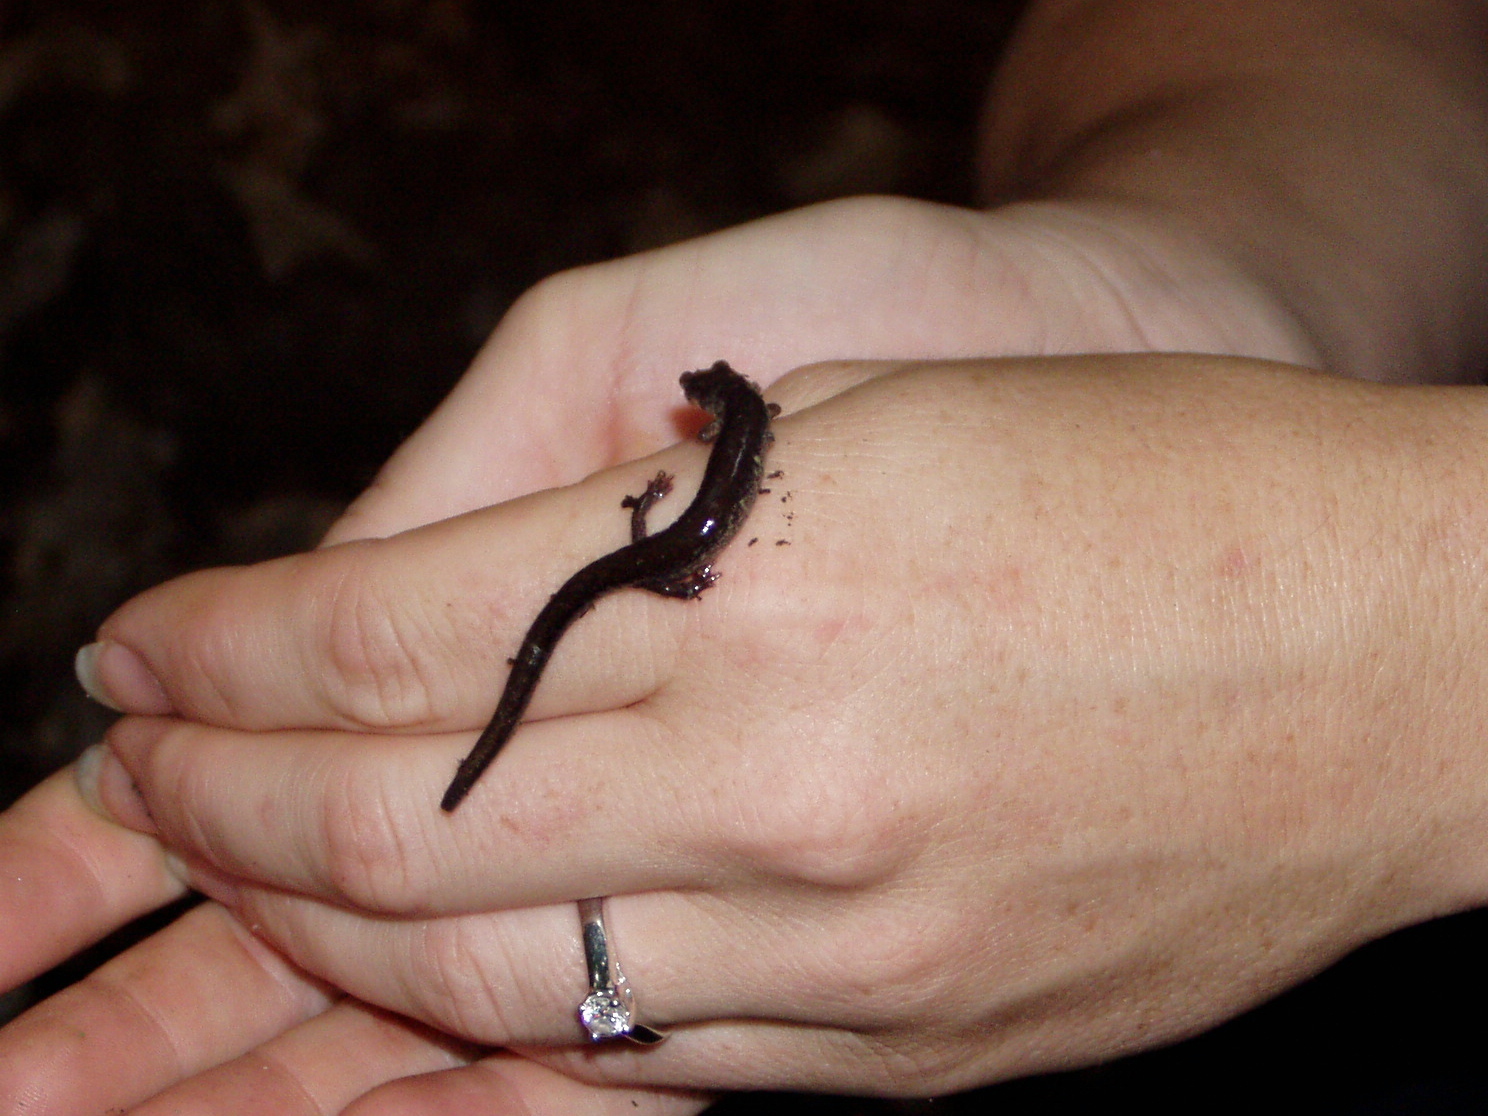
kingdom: Animalia
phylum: Chordata
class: Amphibia
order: Caudata
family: Plethodontidae
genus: Plethodon
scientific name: Plethodon cinereus
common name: Redback salamander
